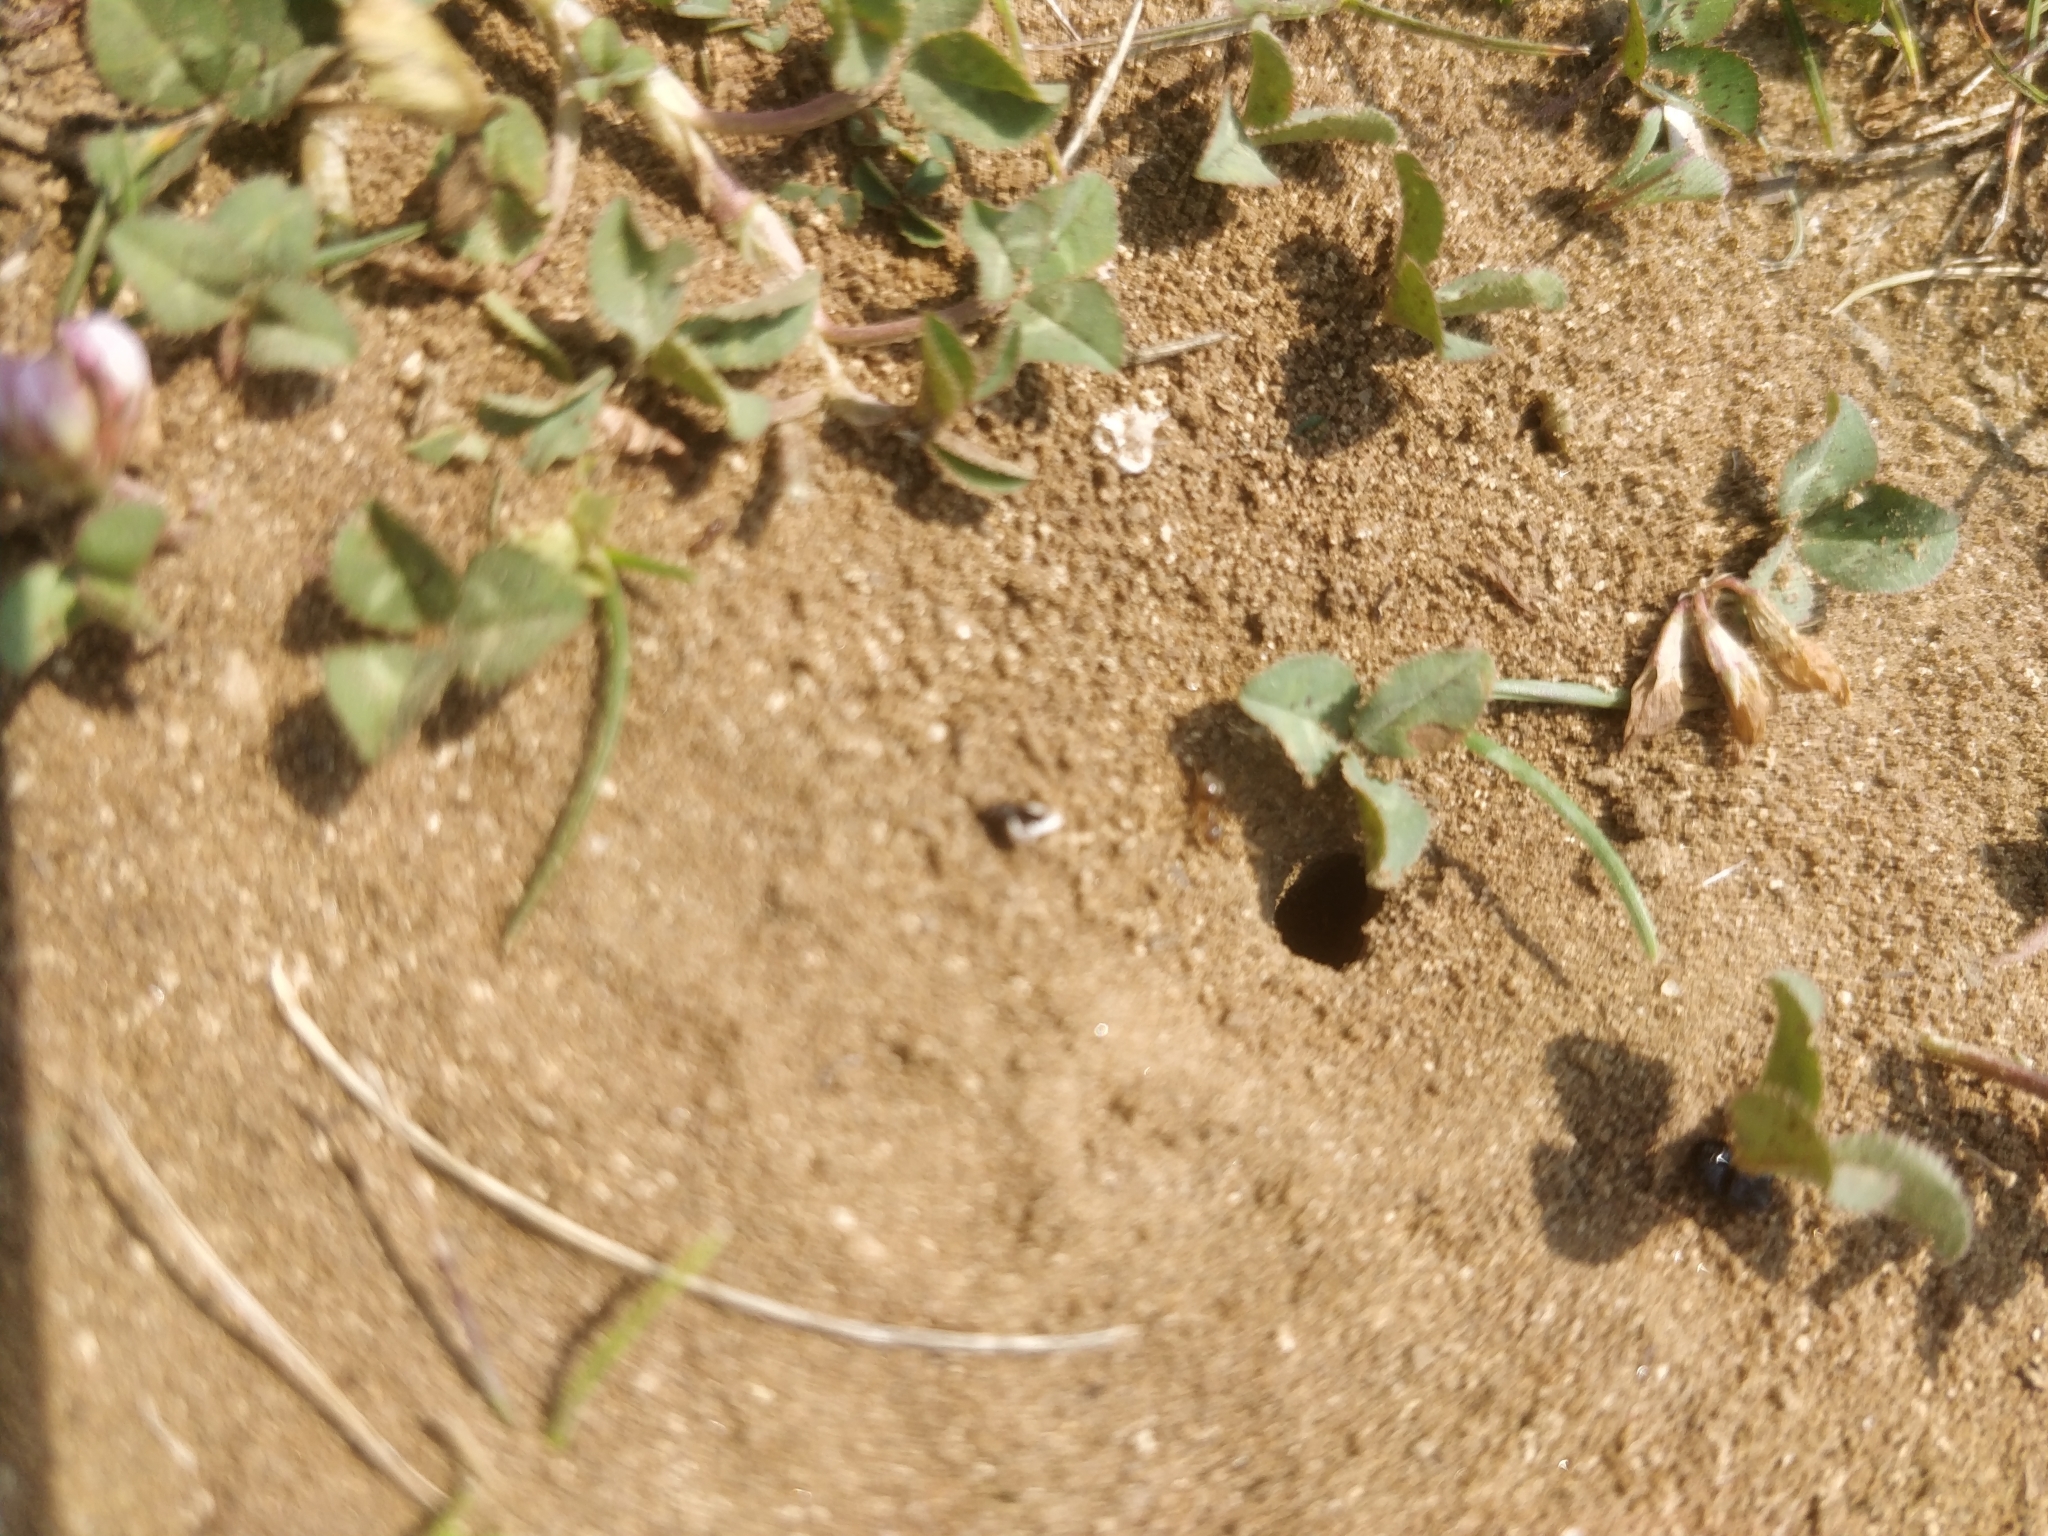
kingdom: Animalia
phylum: Arthropoda
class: Insecta
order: Hymenoptera
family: Formicidae
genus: Lasius
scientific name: Lasius neoniger
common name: Turfgrass ant
